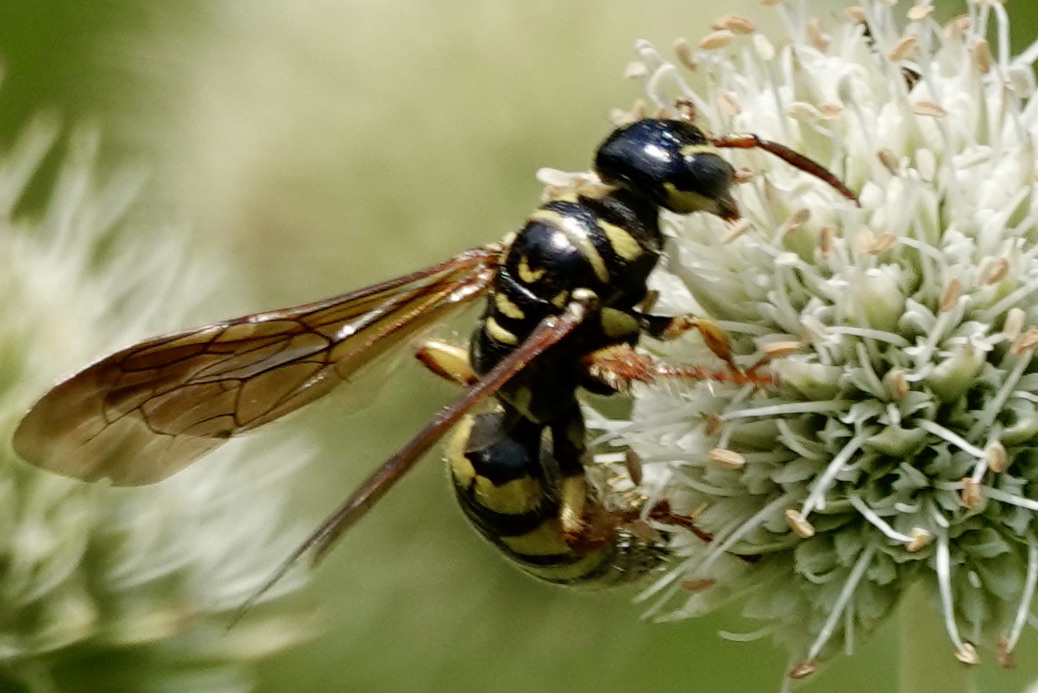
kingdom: Animalia
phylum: Arthropoda
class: Insecta
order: Hymenoptera
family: Tiphiidae
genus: Myzinum
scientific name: Myzinum quinquecinctum
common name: Five-banded thynnid wasp
